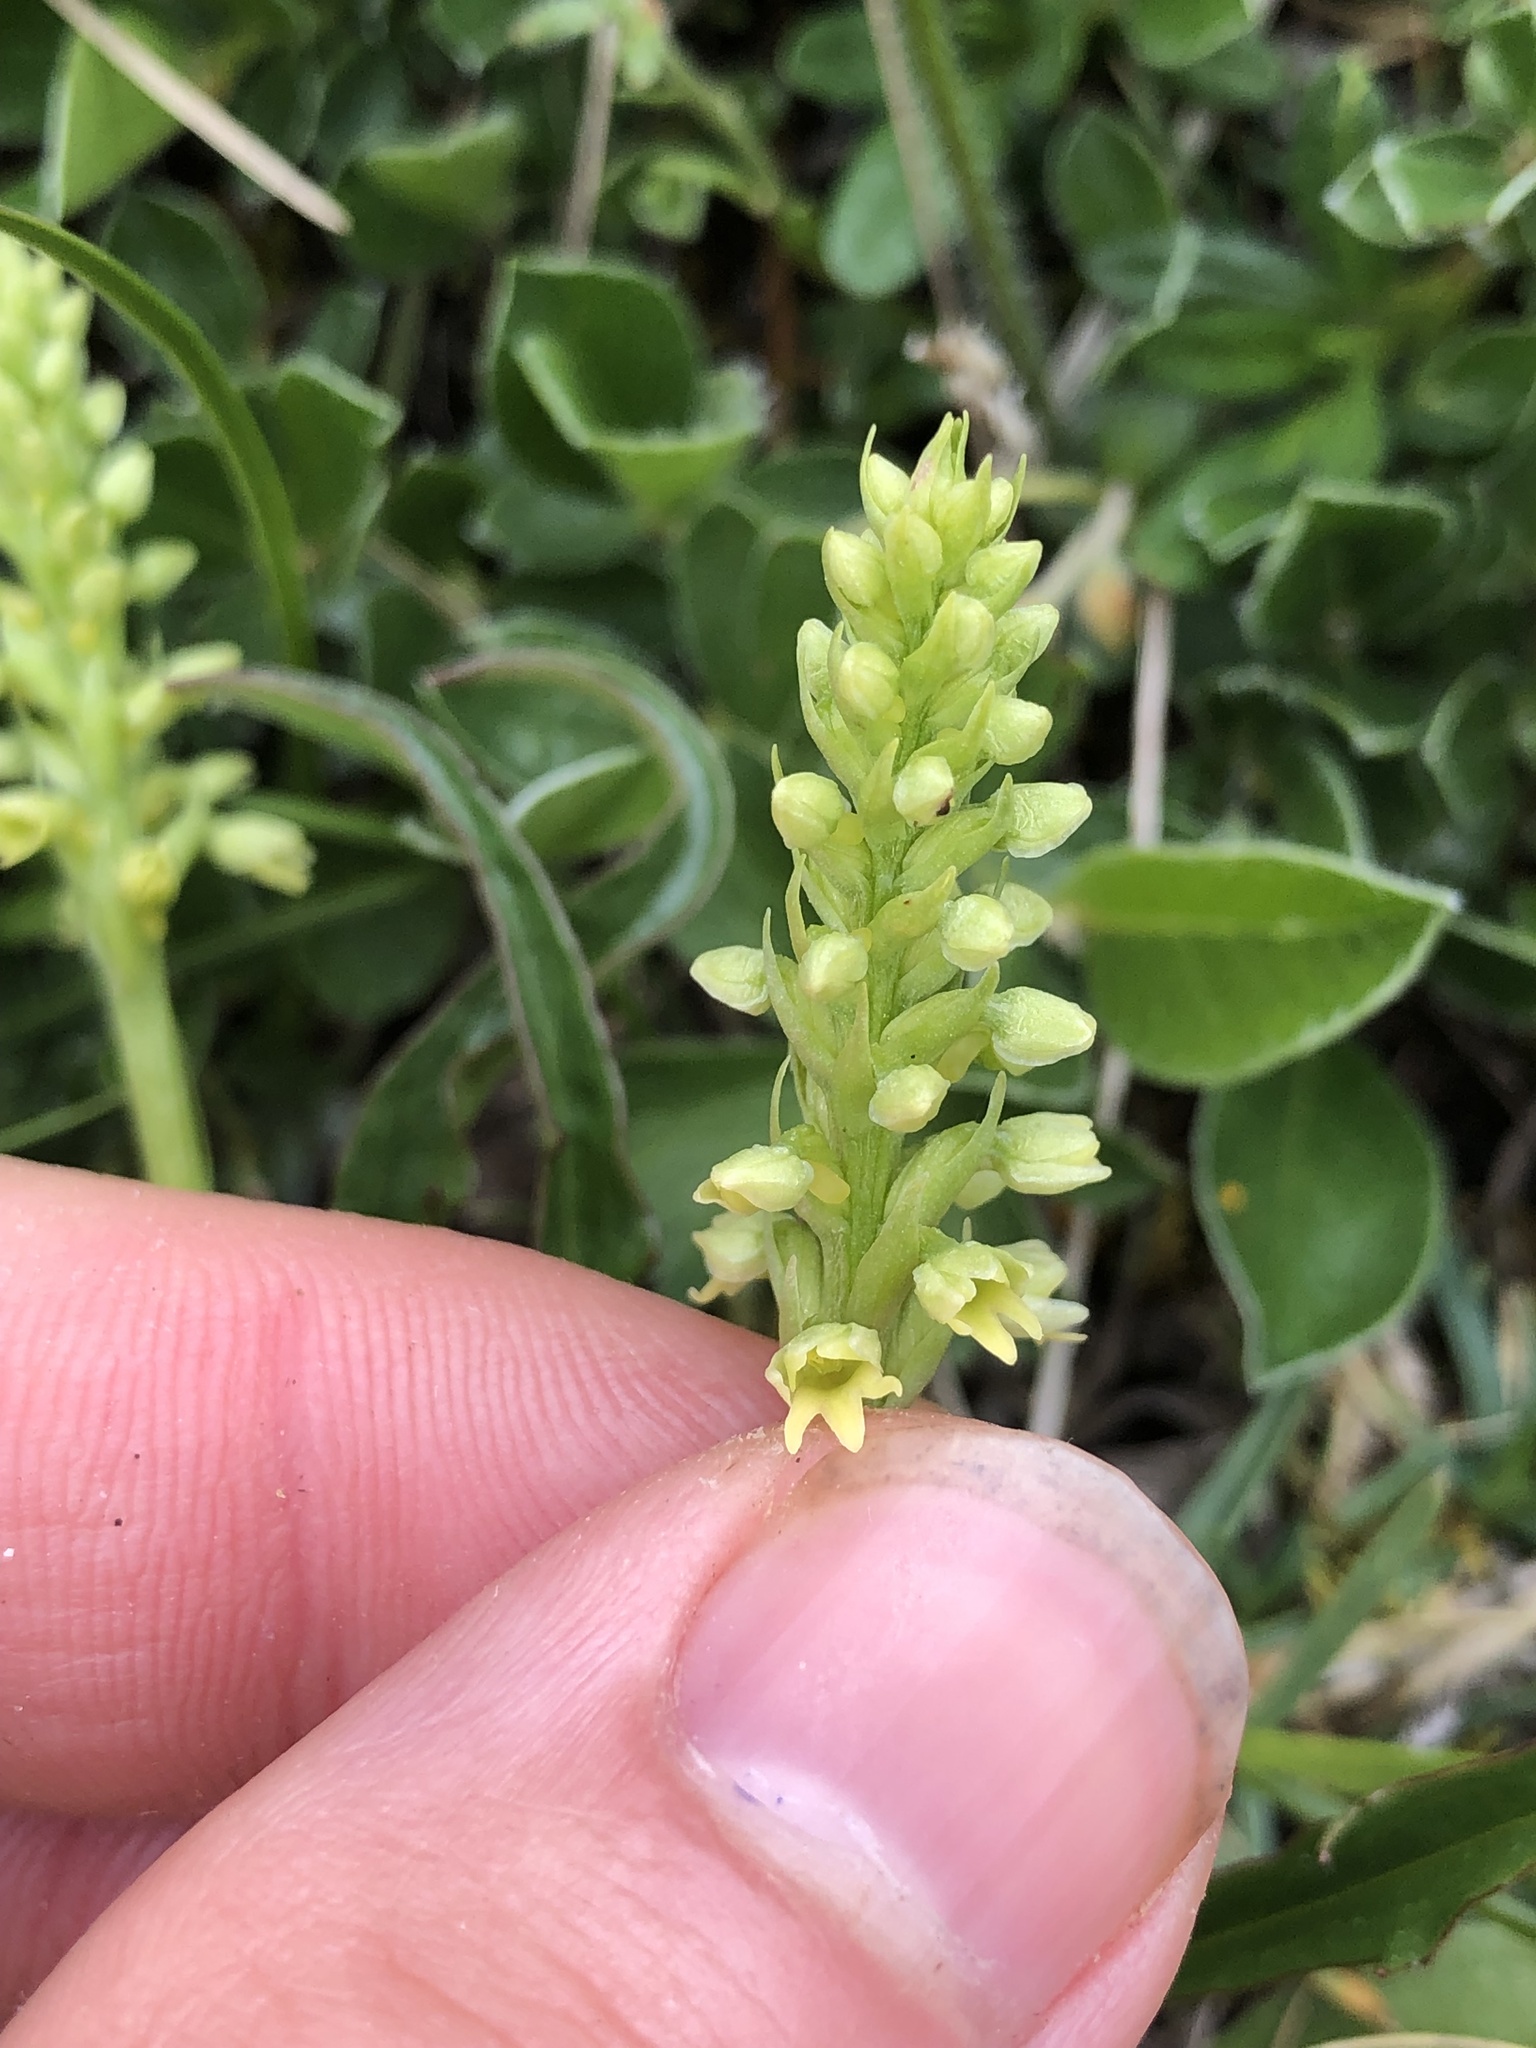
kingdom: Plantae
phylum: Tracheophyta
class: Liliopsida
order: Asparagales
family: Orchidaceae
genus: Pseudorchis
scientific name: Pseudorchis albida
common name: Small-white orchid
